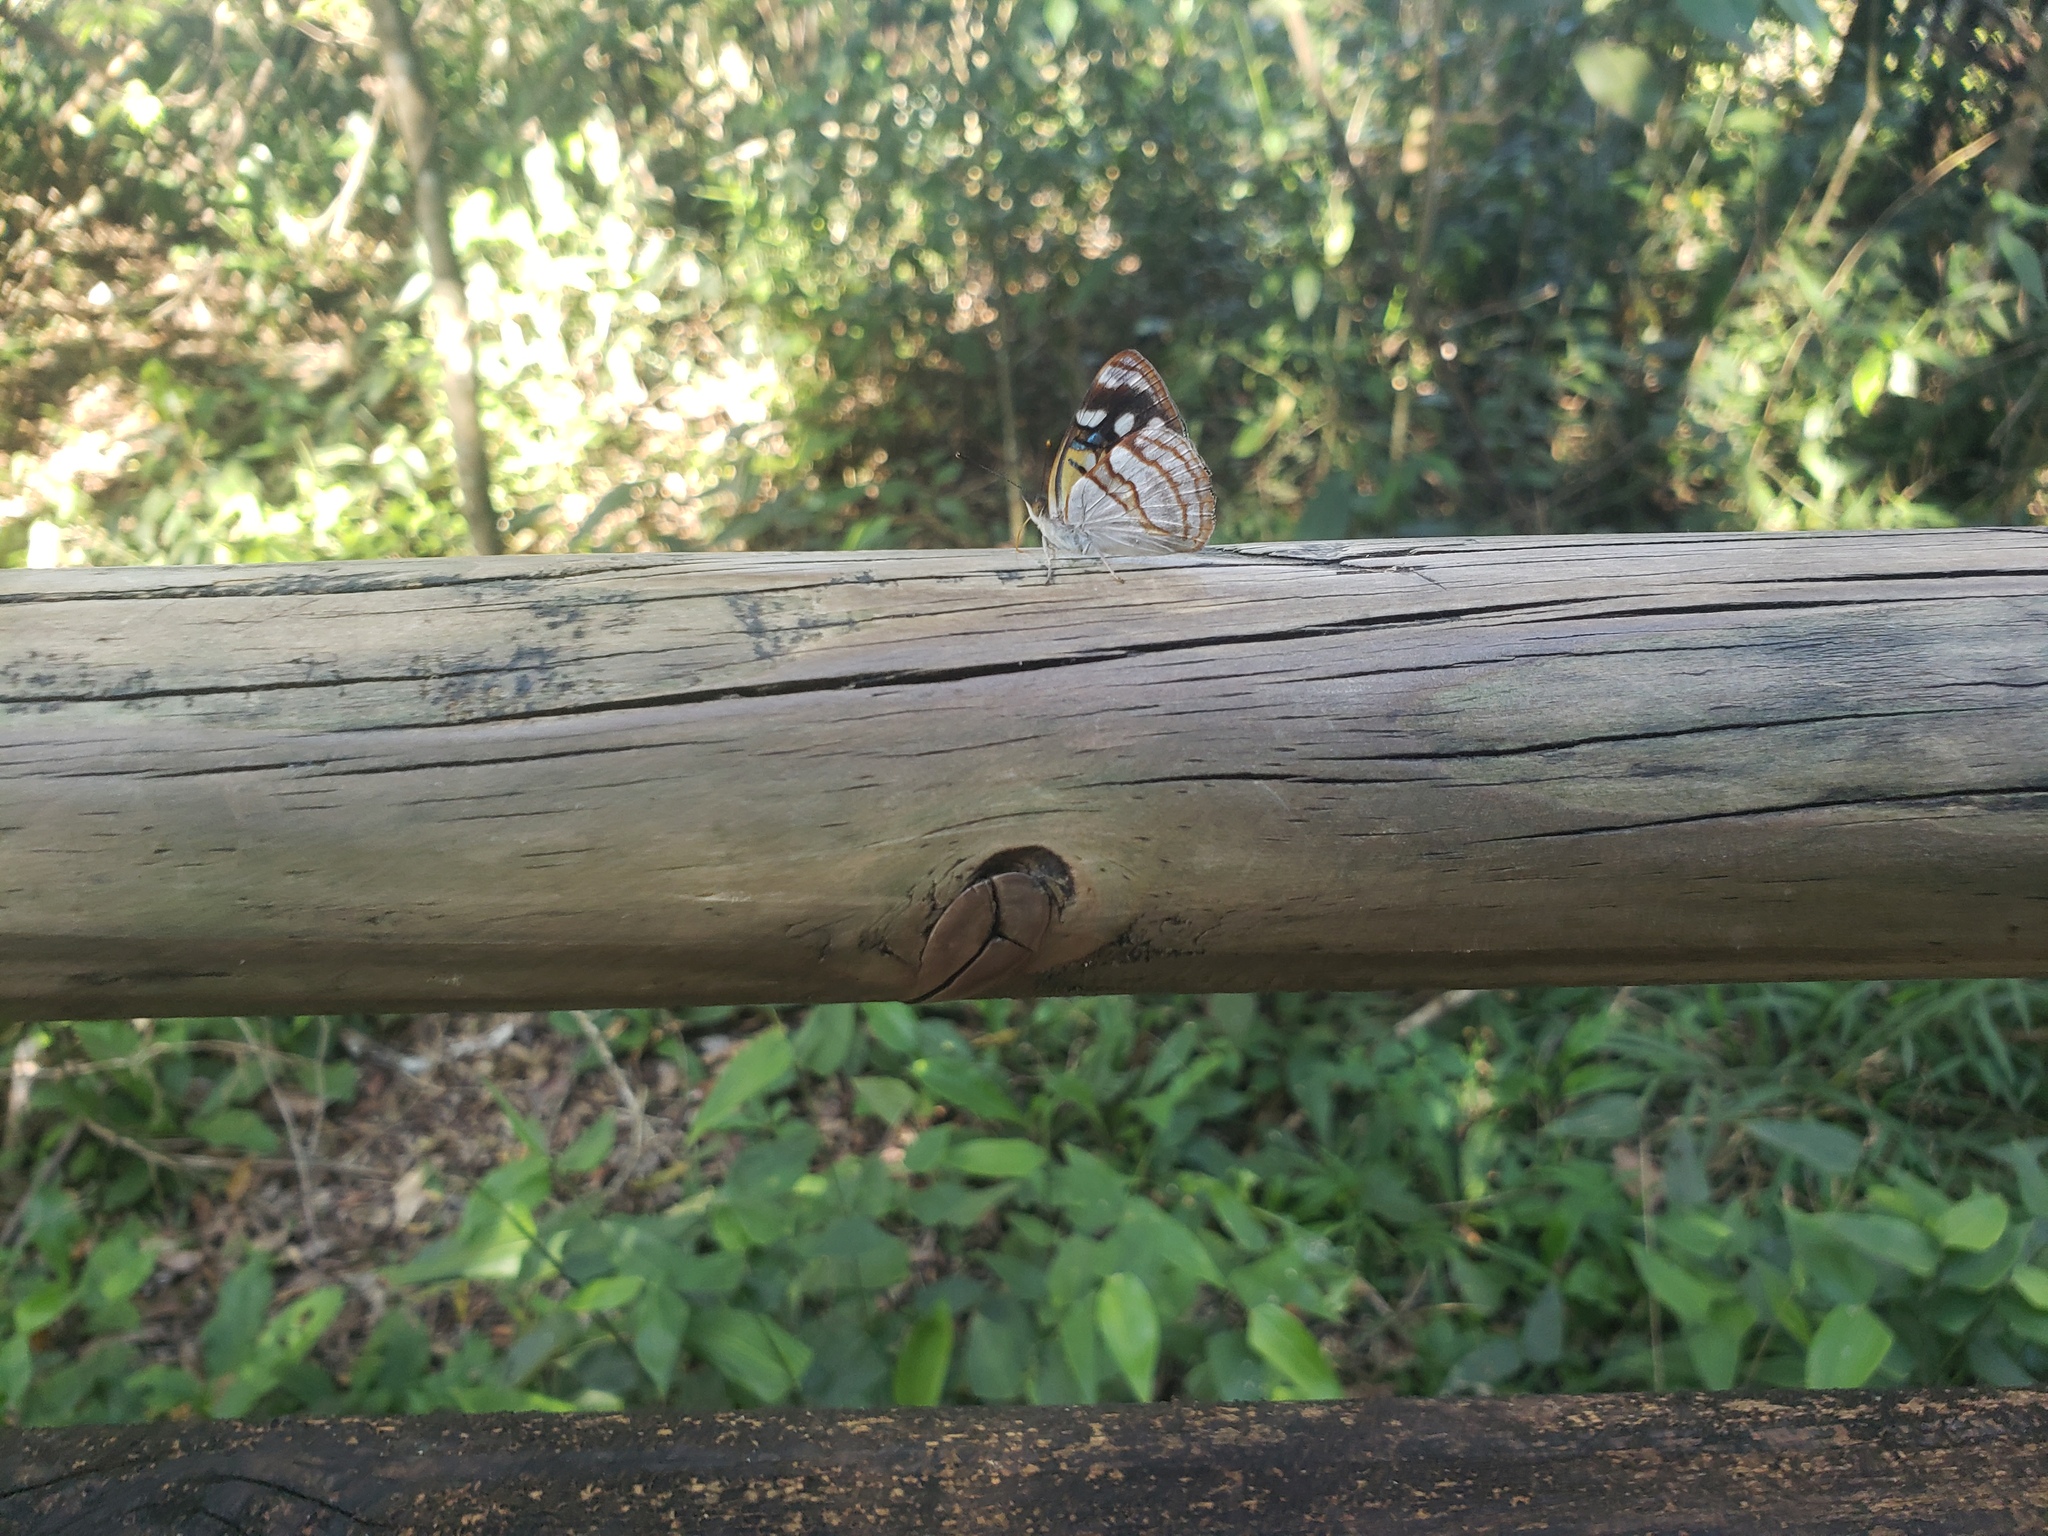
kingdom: Animalia
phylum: Arthropoda
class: Insecta
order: Lepidoptera
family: Nymphalidae
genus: Dynamine
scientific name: Dynamine tithia
